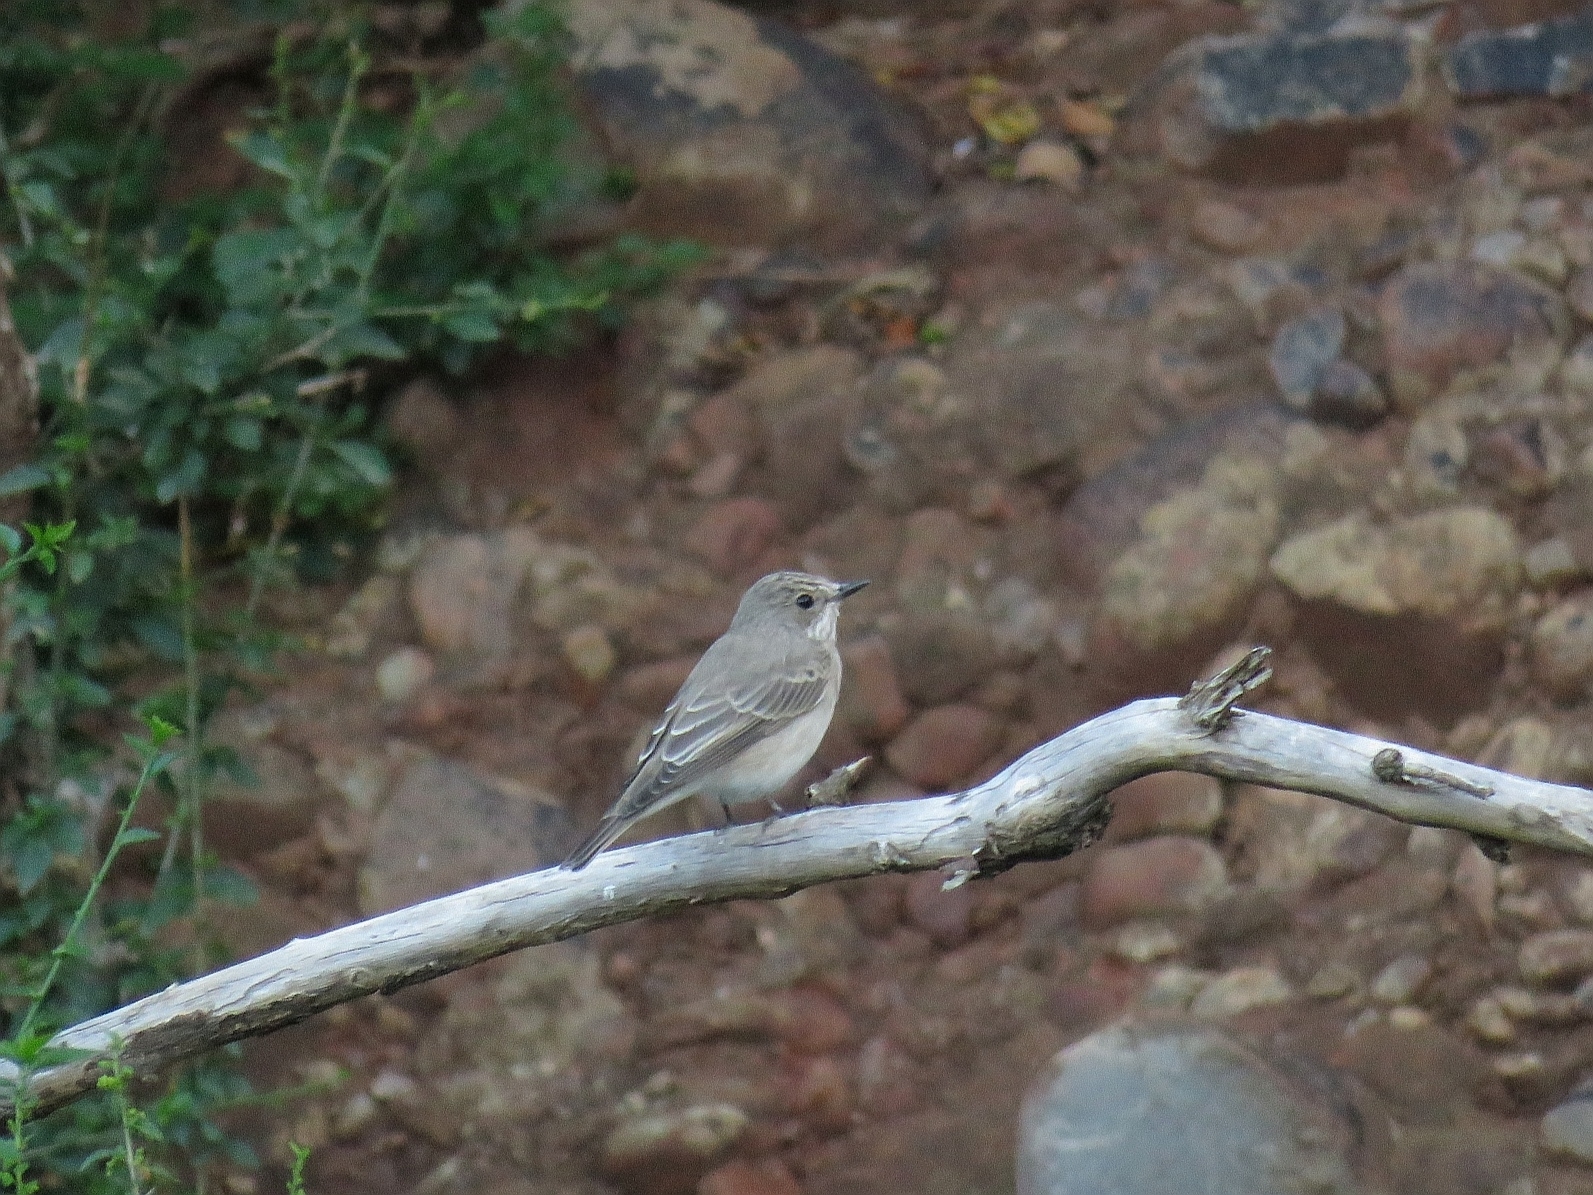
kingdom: Animalia
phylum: Chordata
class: Aves
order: Passeriformes
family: Muscicapidae
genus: Muscicapa
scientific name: Muscicapa striata
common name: Spotted flycatcher
